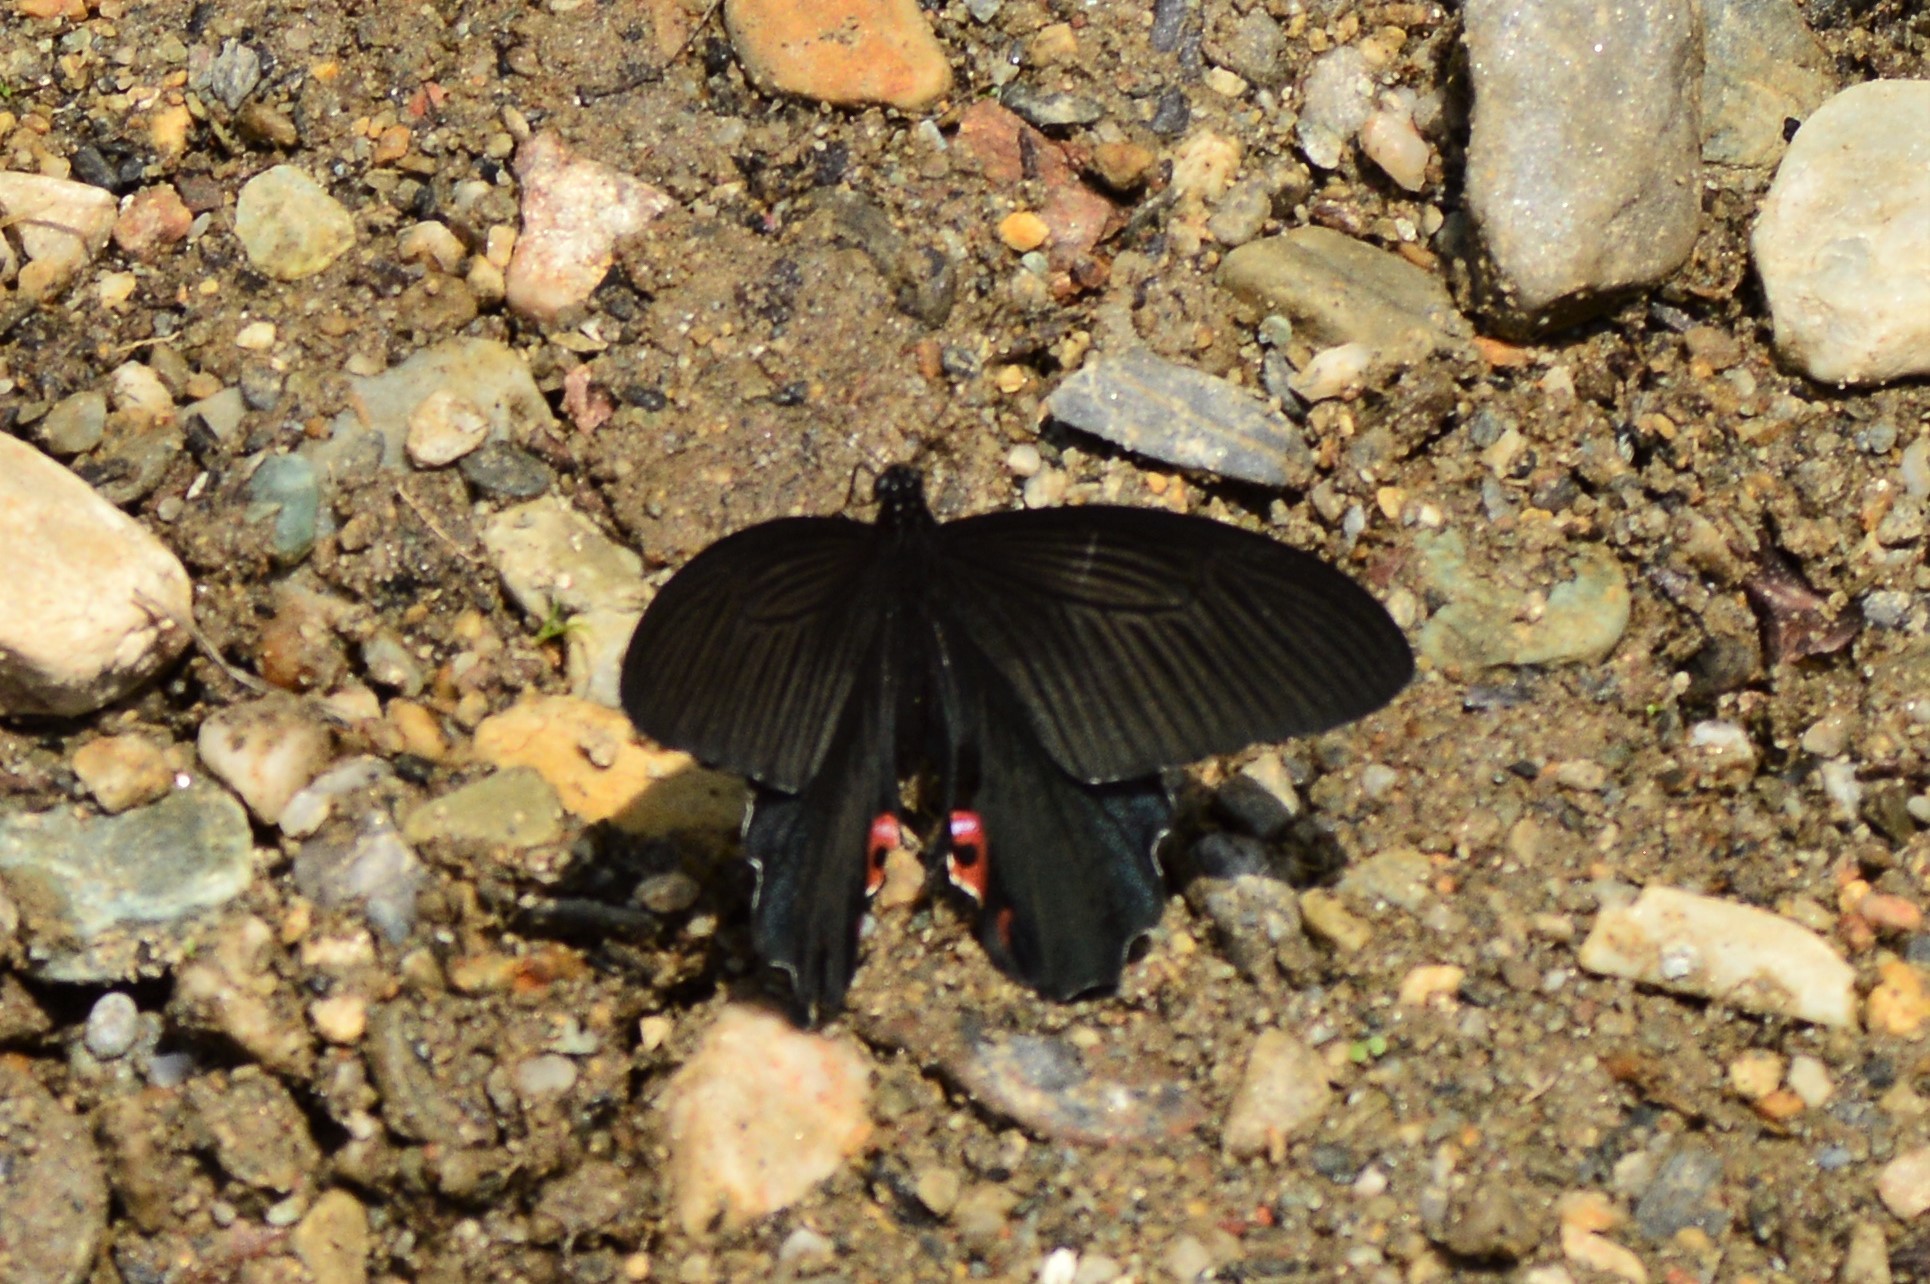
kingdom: Animalia
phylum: Arthropoda
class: Insecta
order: Lepidoptera
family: Papilionidae
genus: Papilio
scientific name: Papilio protenor
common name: Spangle
